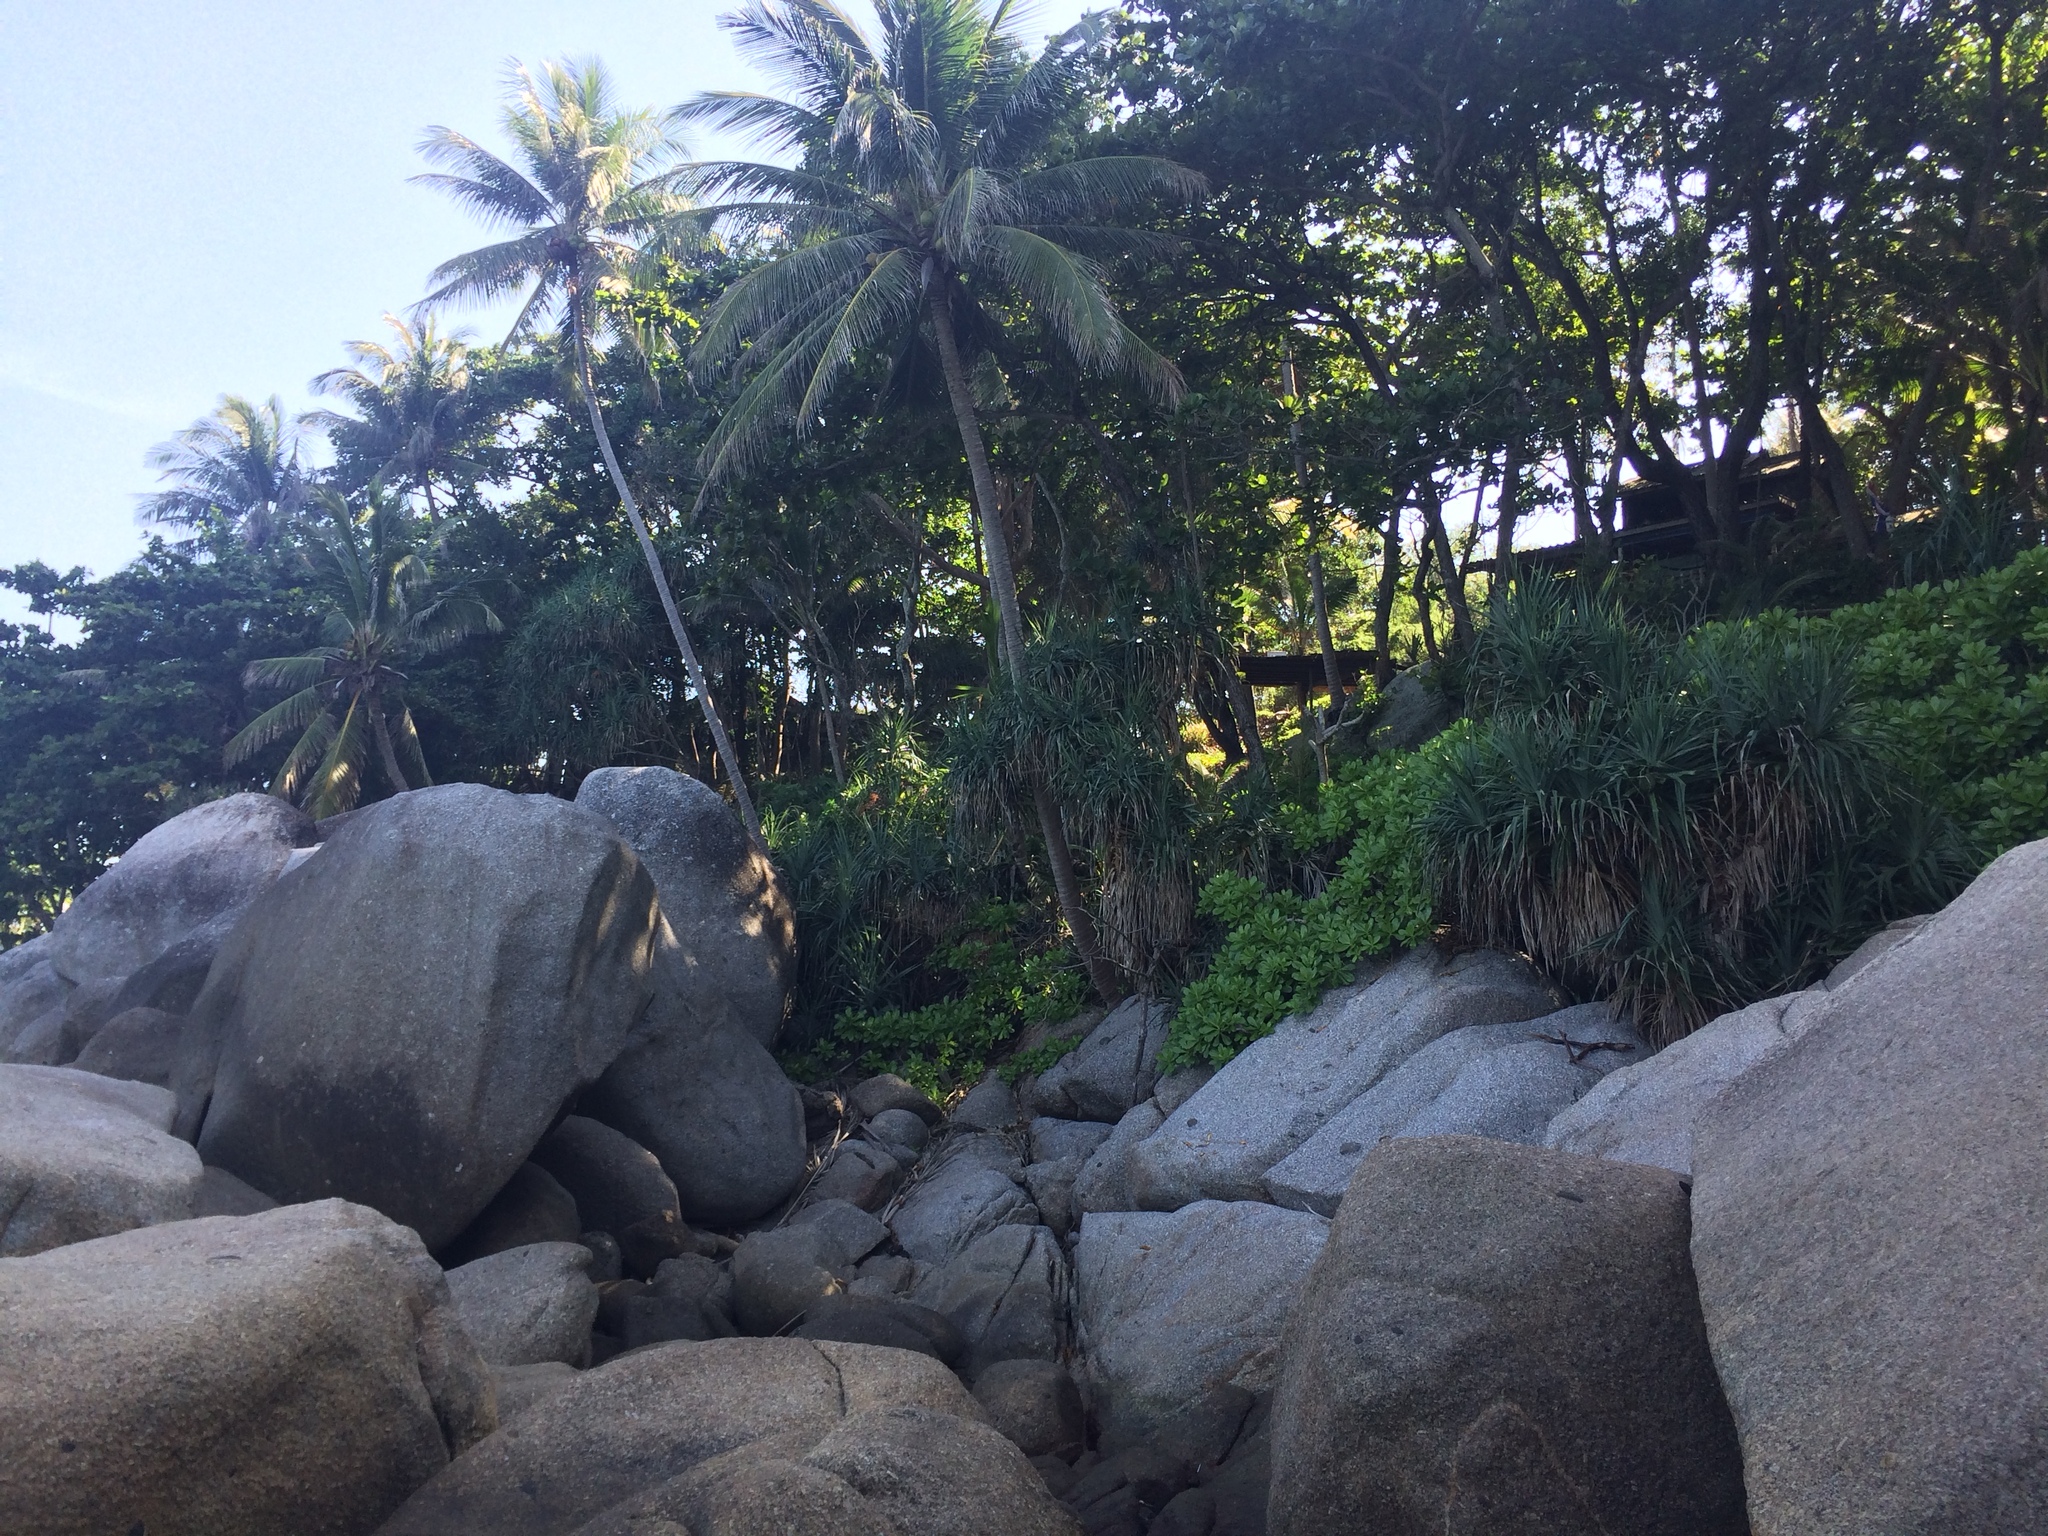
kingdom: Plantae
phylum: Tracheophyta
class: Liliopsida
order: Arecales
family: Arecaceae
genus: Cocos
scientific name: Cocos nucifera
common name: Coconut palm
